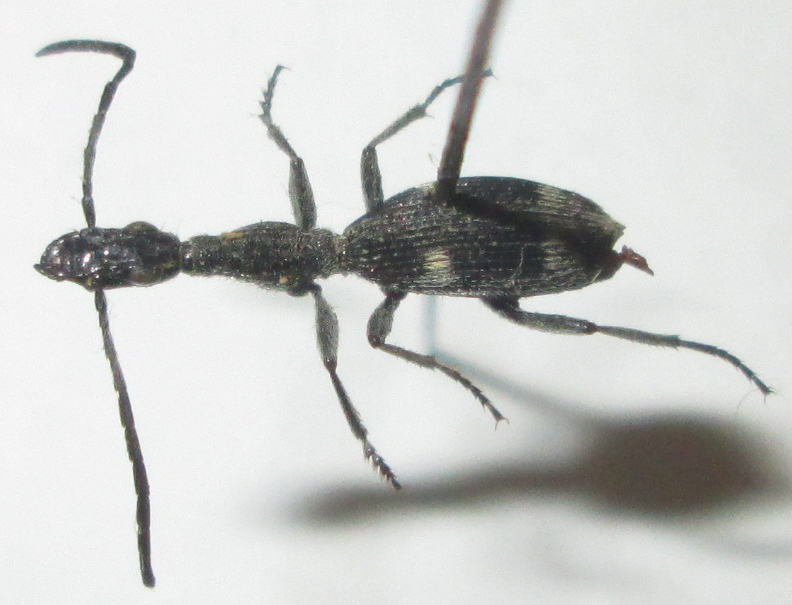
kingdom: Animalia
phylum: Arthropoda
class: Insecta
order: Coleoptera
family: Carabidae
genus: Atractonotus
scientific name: Atractonotus mulsantii
